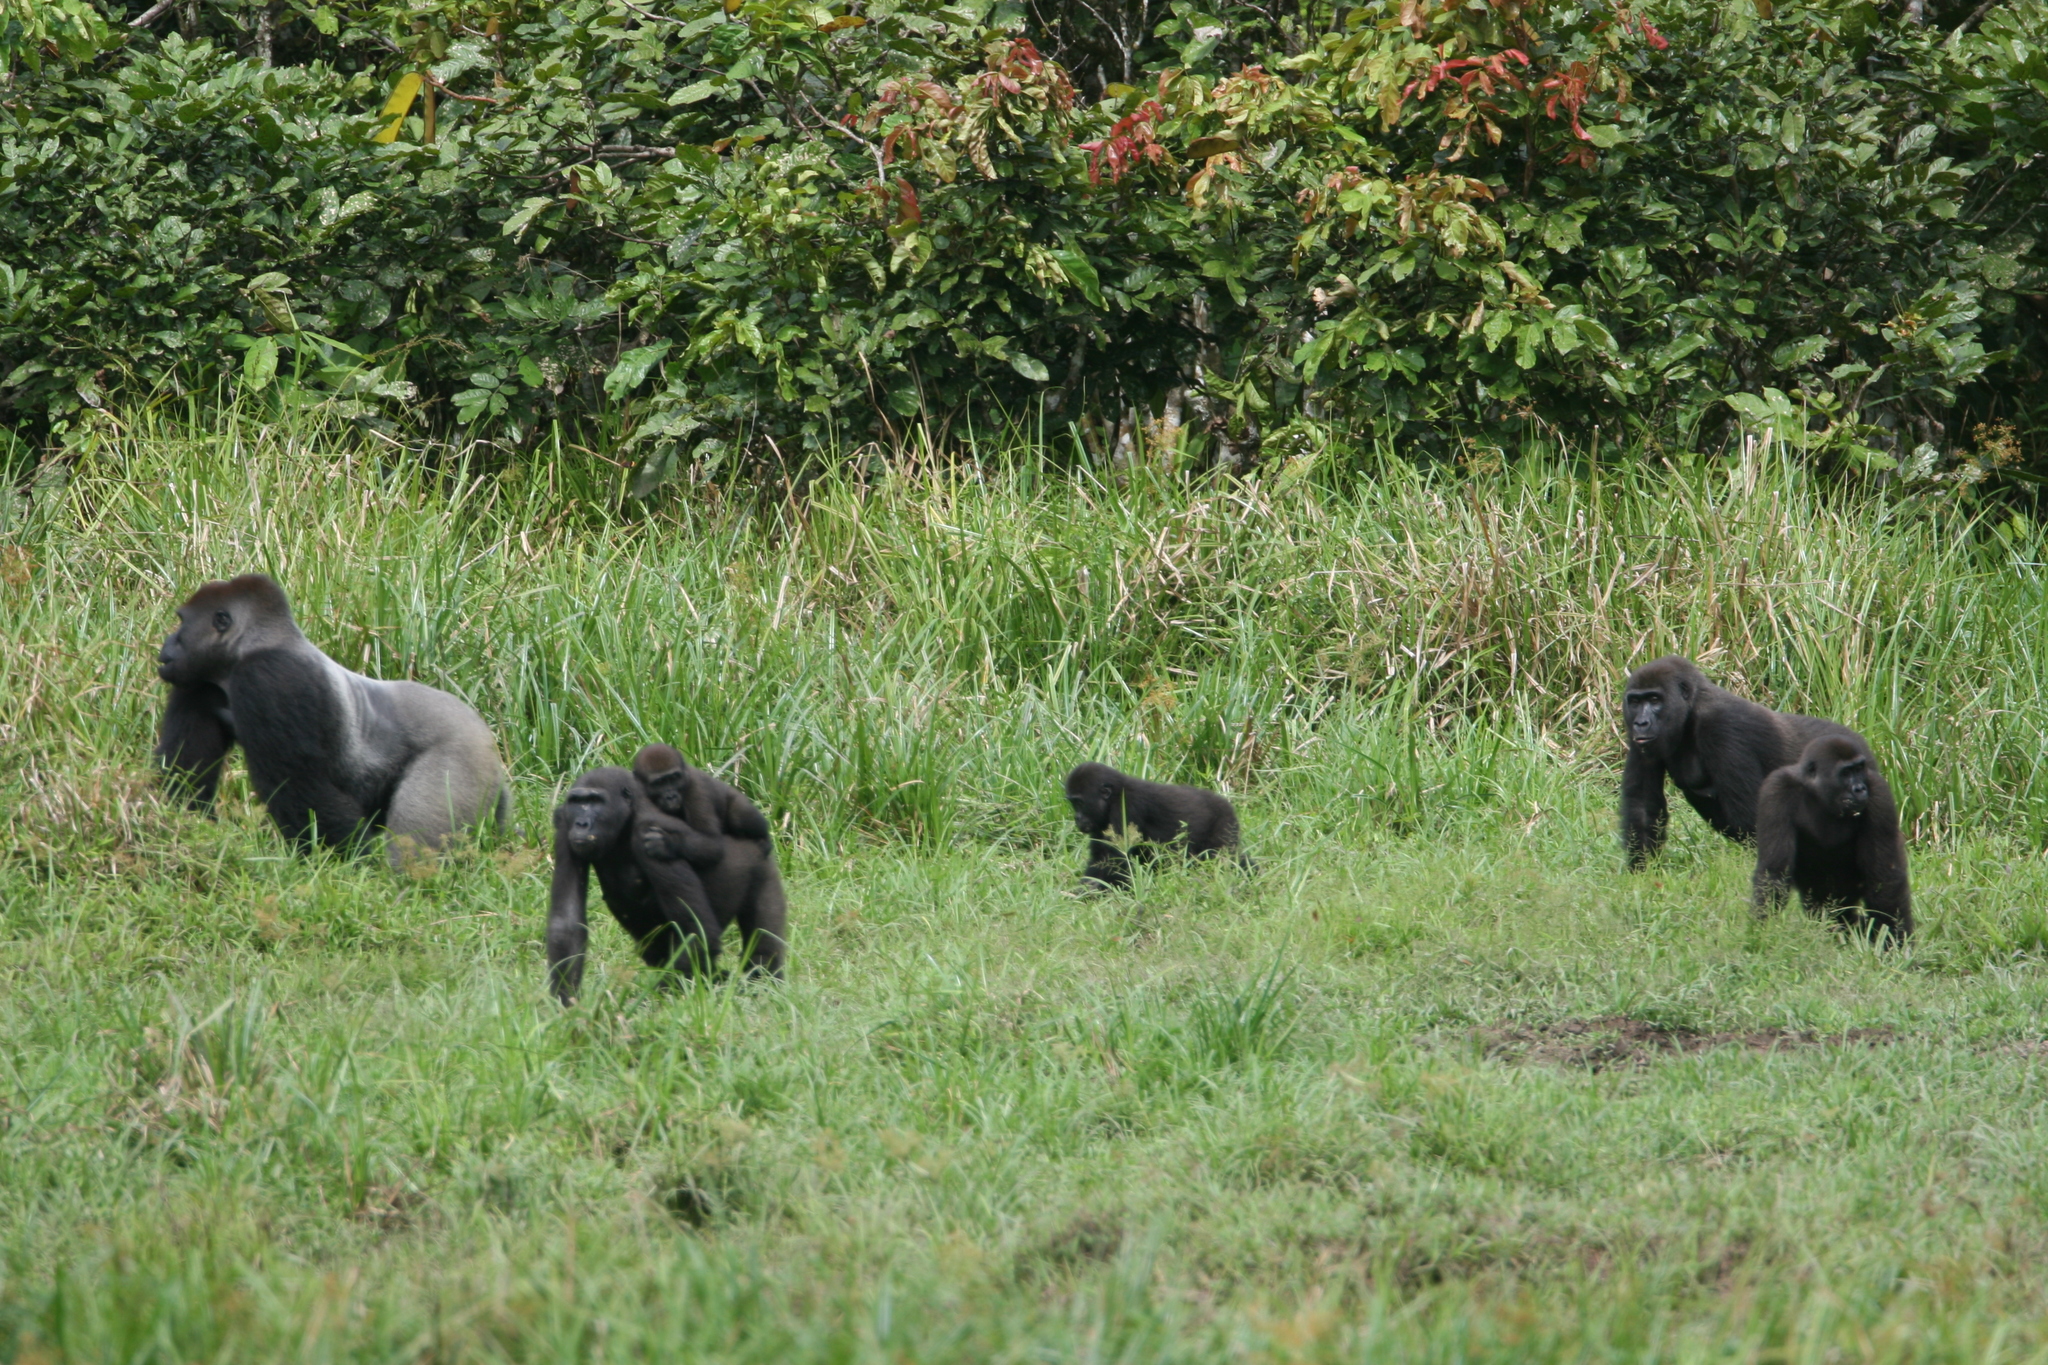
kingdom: Animalia
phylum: Chordata
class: Mammalia
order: Primates
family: Hominidae
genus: Gorilla
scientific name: Gorilla gorilla
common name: Western gorilla
